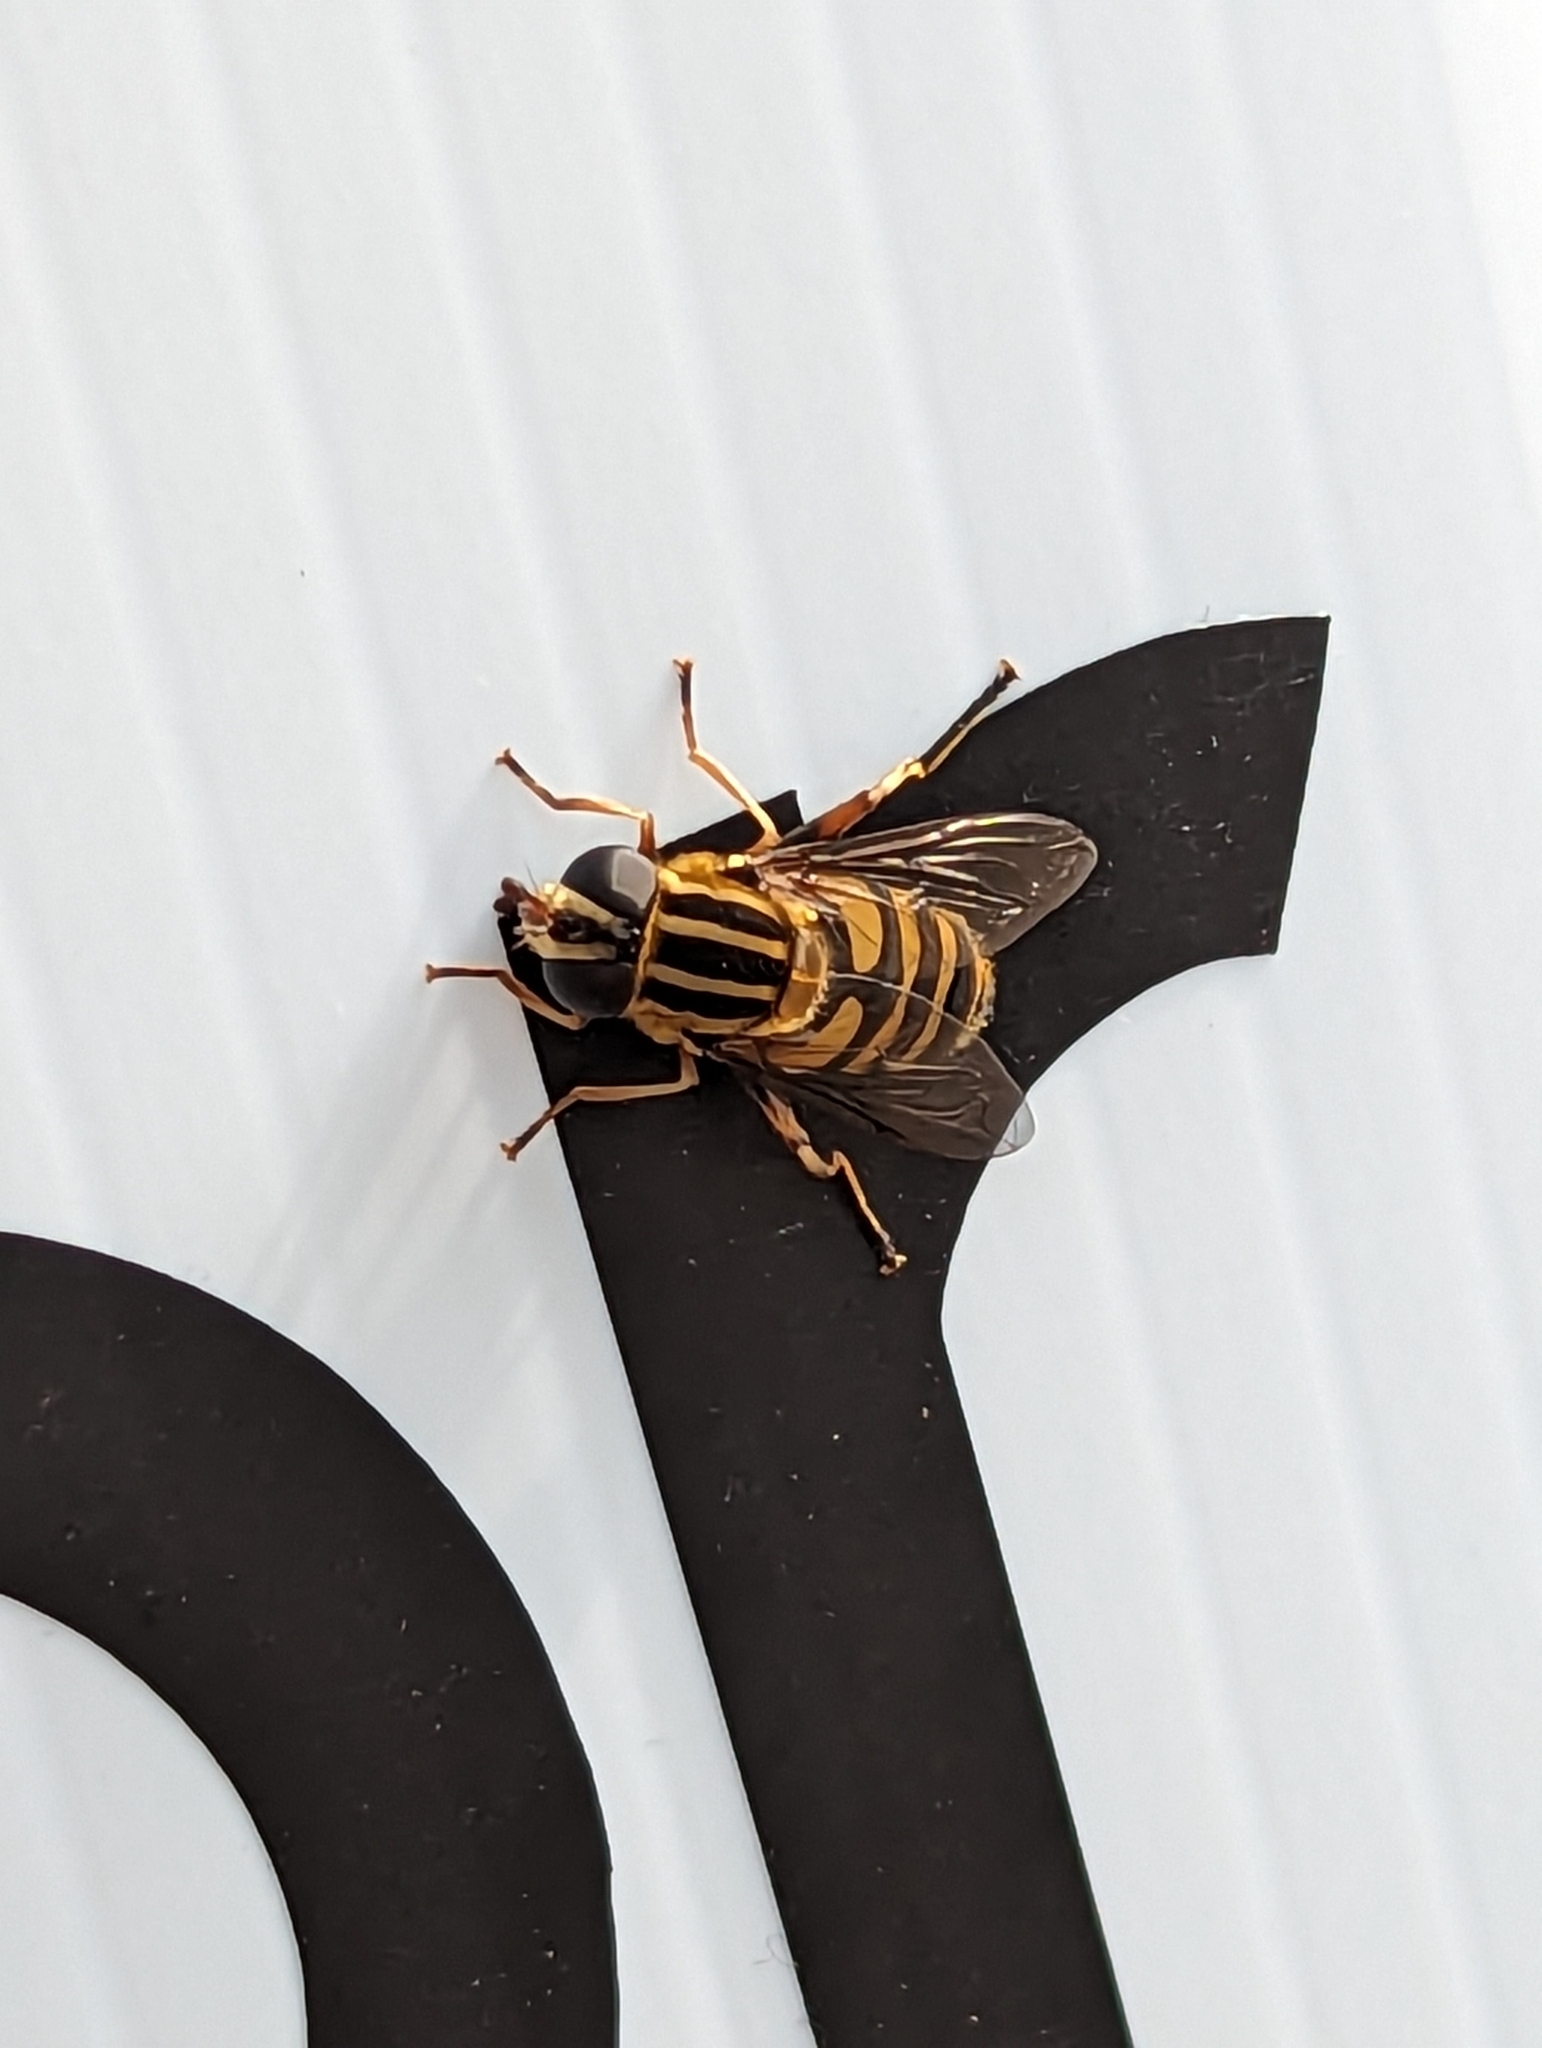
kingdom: Animalia
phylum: Arthropoda
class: Insecta
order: Diptera
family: Syrphidae
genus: Helophilus
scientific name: Helophilus fasciatus
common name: Narrow-headed marsh fly
